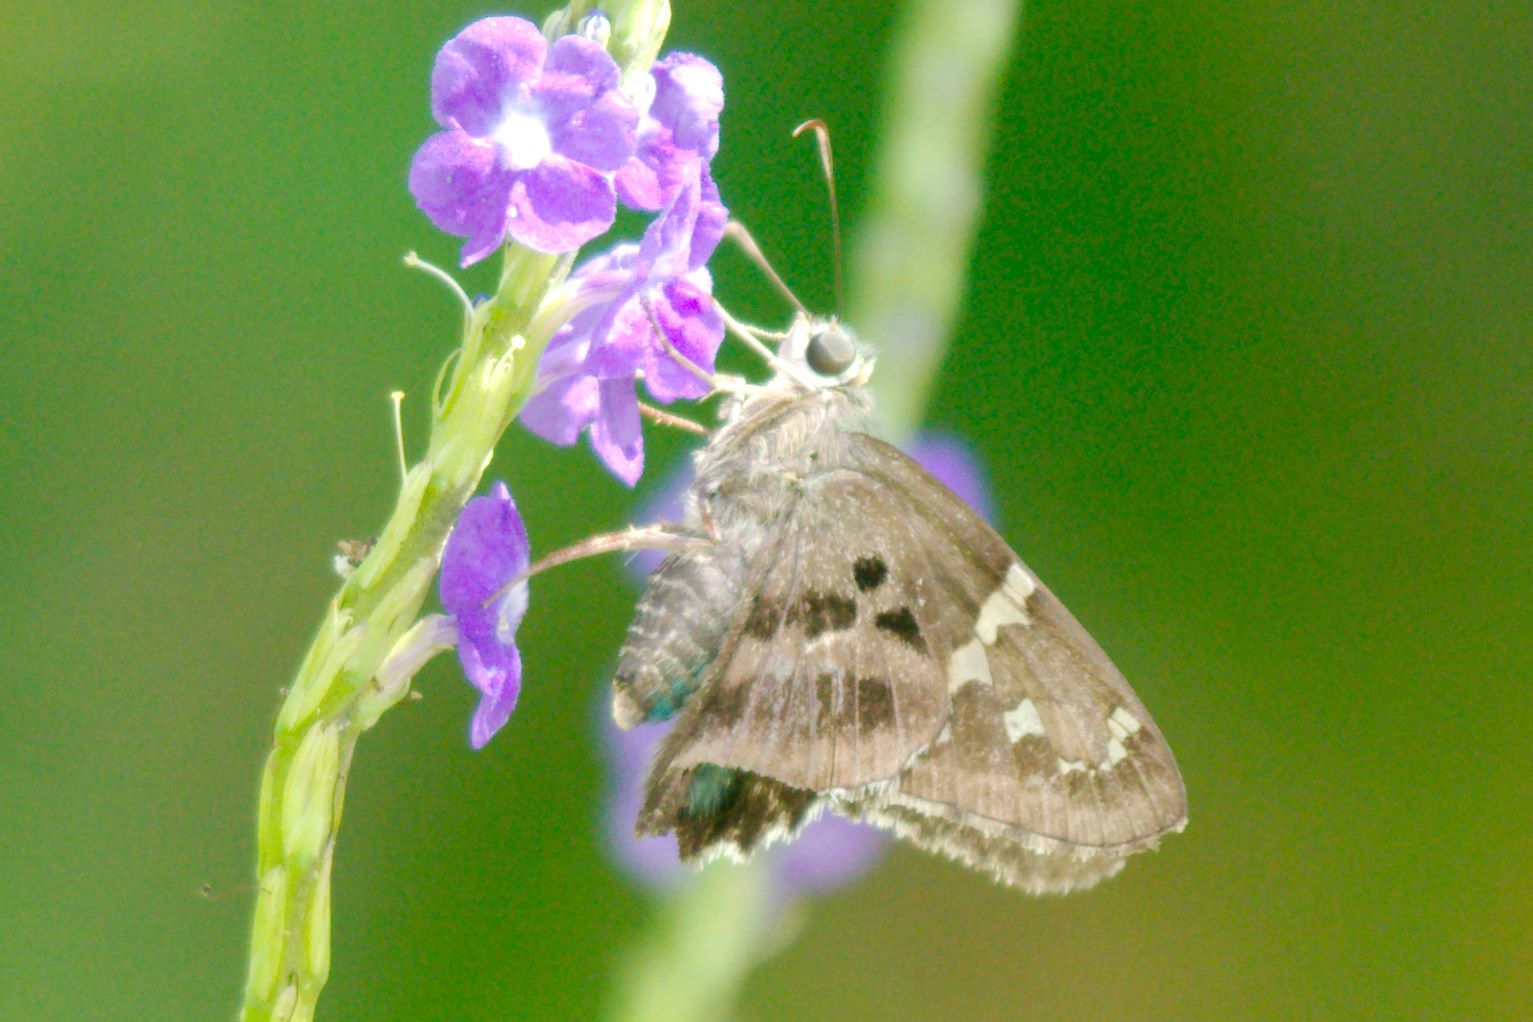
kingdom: Animalia
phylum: Arthropoda
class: Insecta
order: Lepidoptera
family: Hesperiidae
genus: Urbanus
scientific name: Urbanus proteus
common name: Long-tailed skipper
